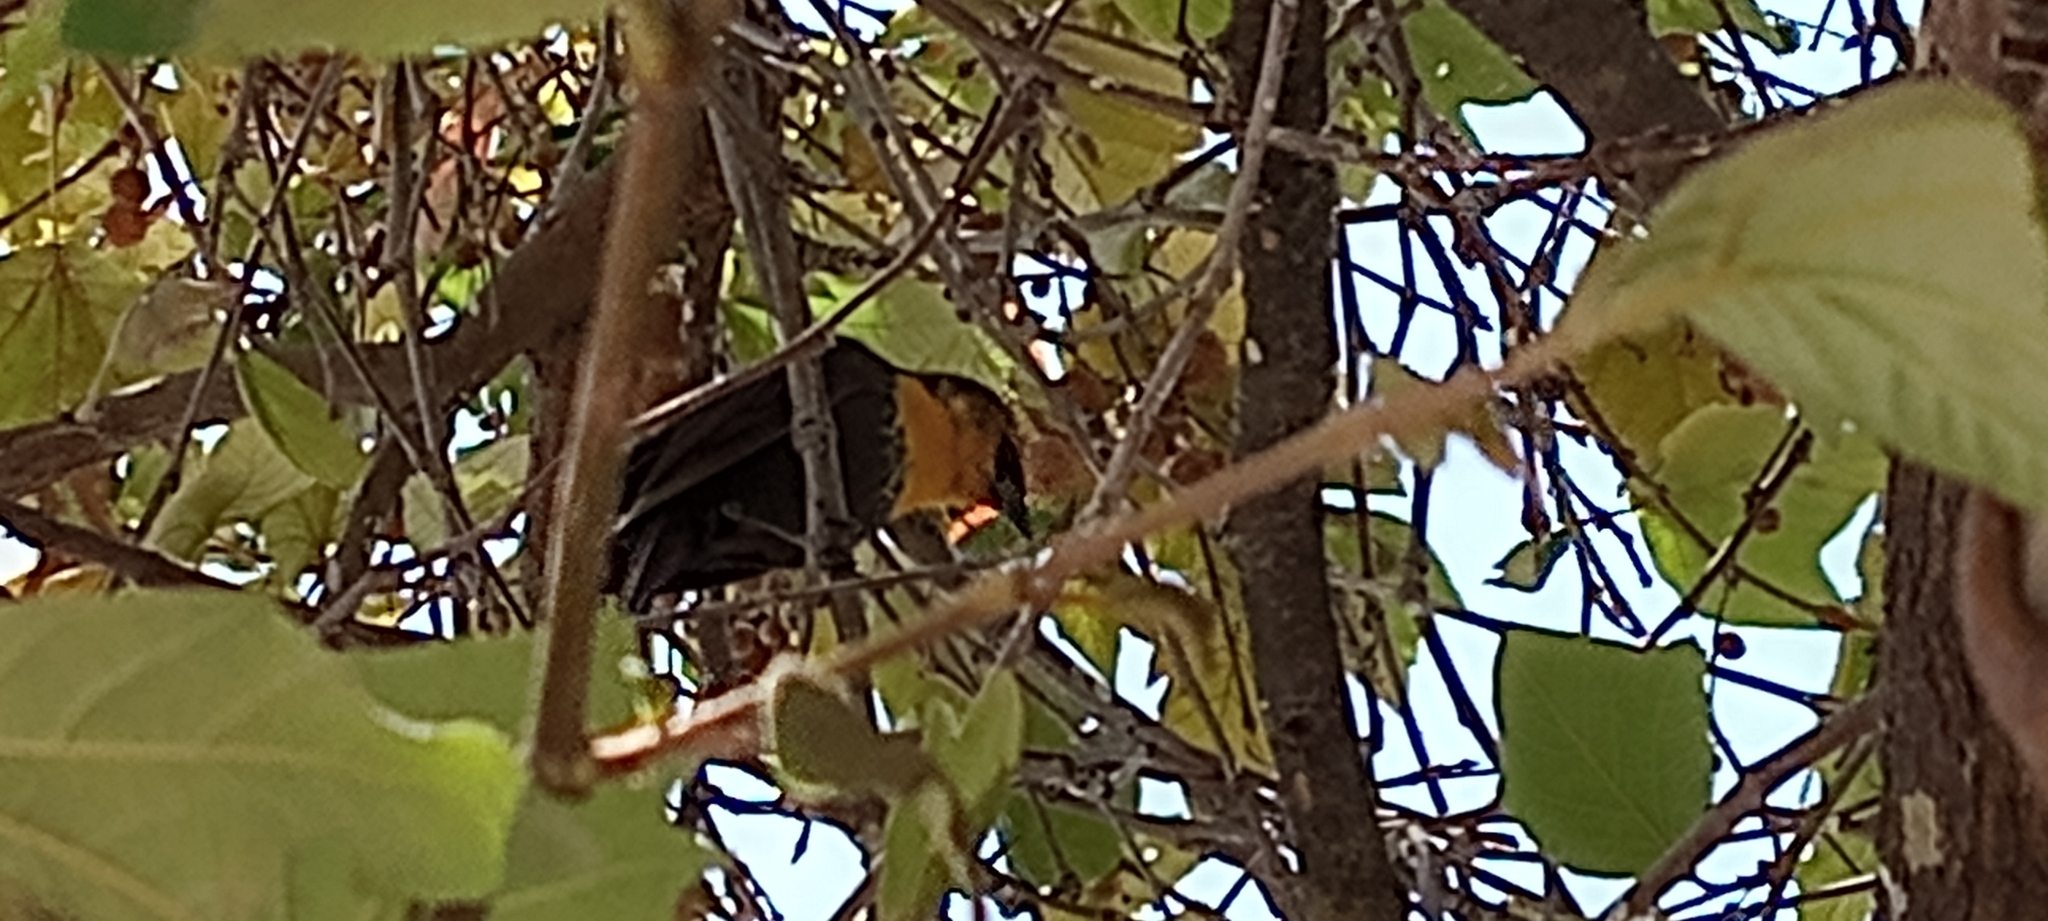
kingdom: Animalia
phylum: Chordata
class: Aves
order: Passeriformes
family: Icteridae
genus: Xanthocephalus
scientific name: Xanthocephalus xanthocephalus
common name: Yellow-headed blackbird
